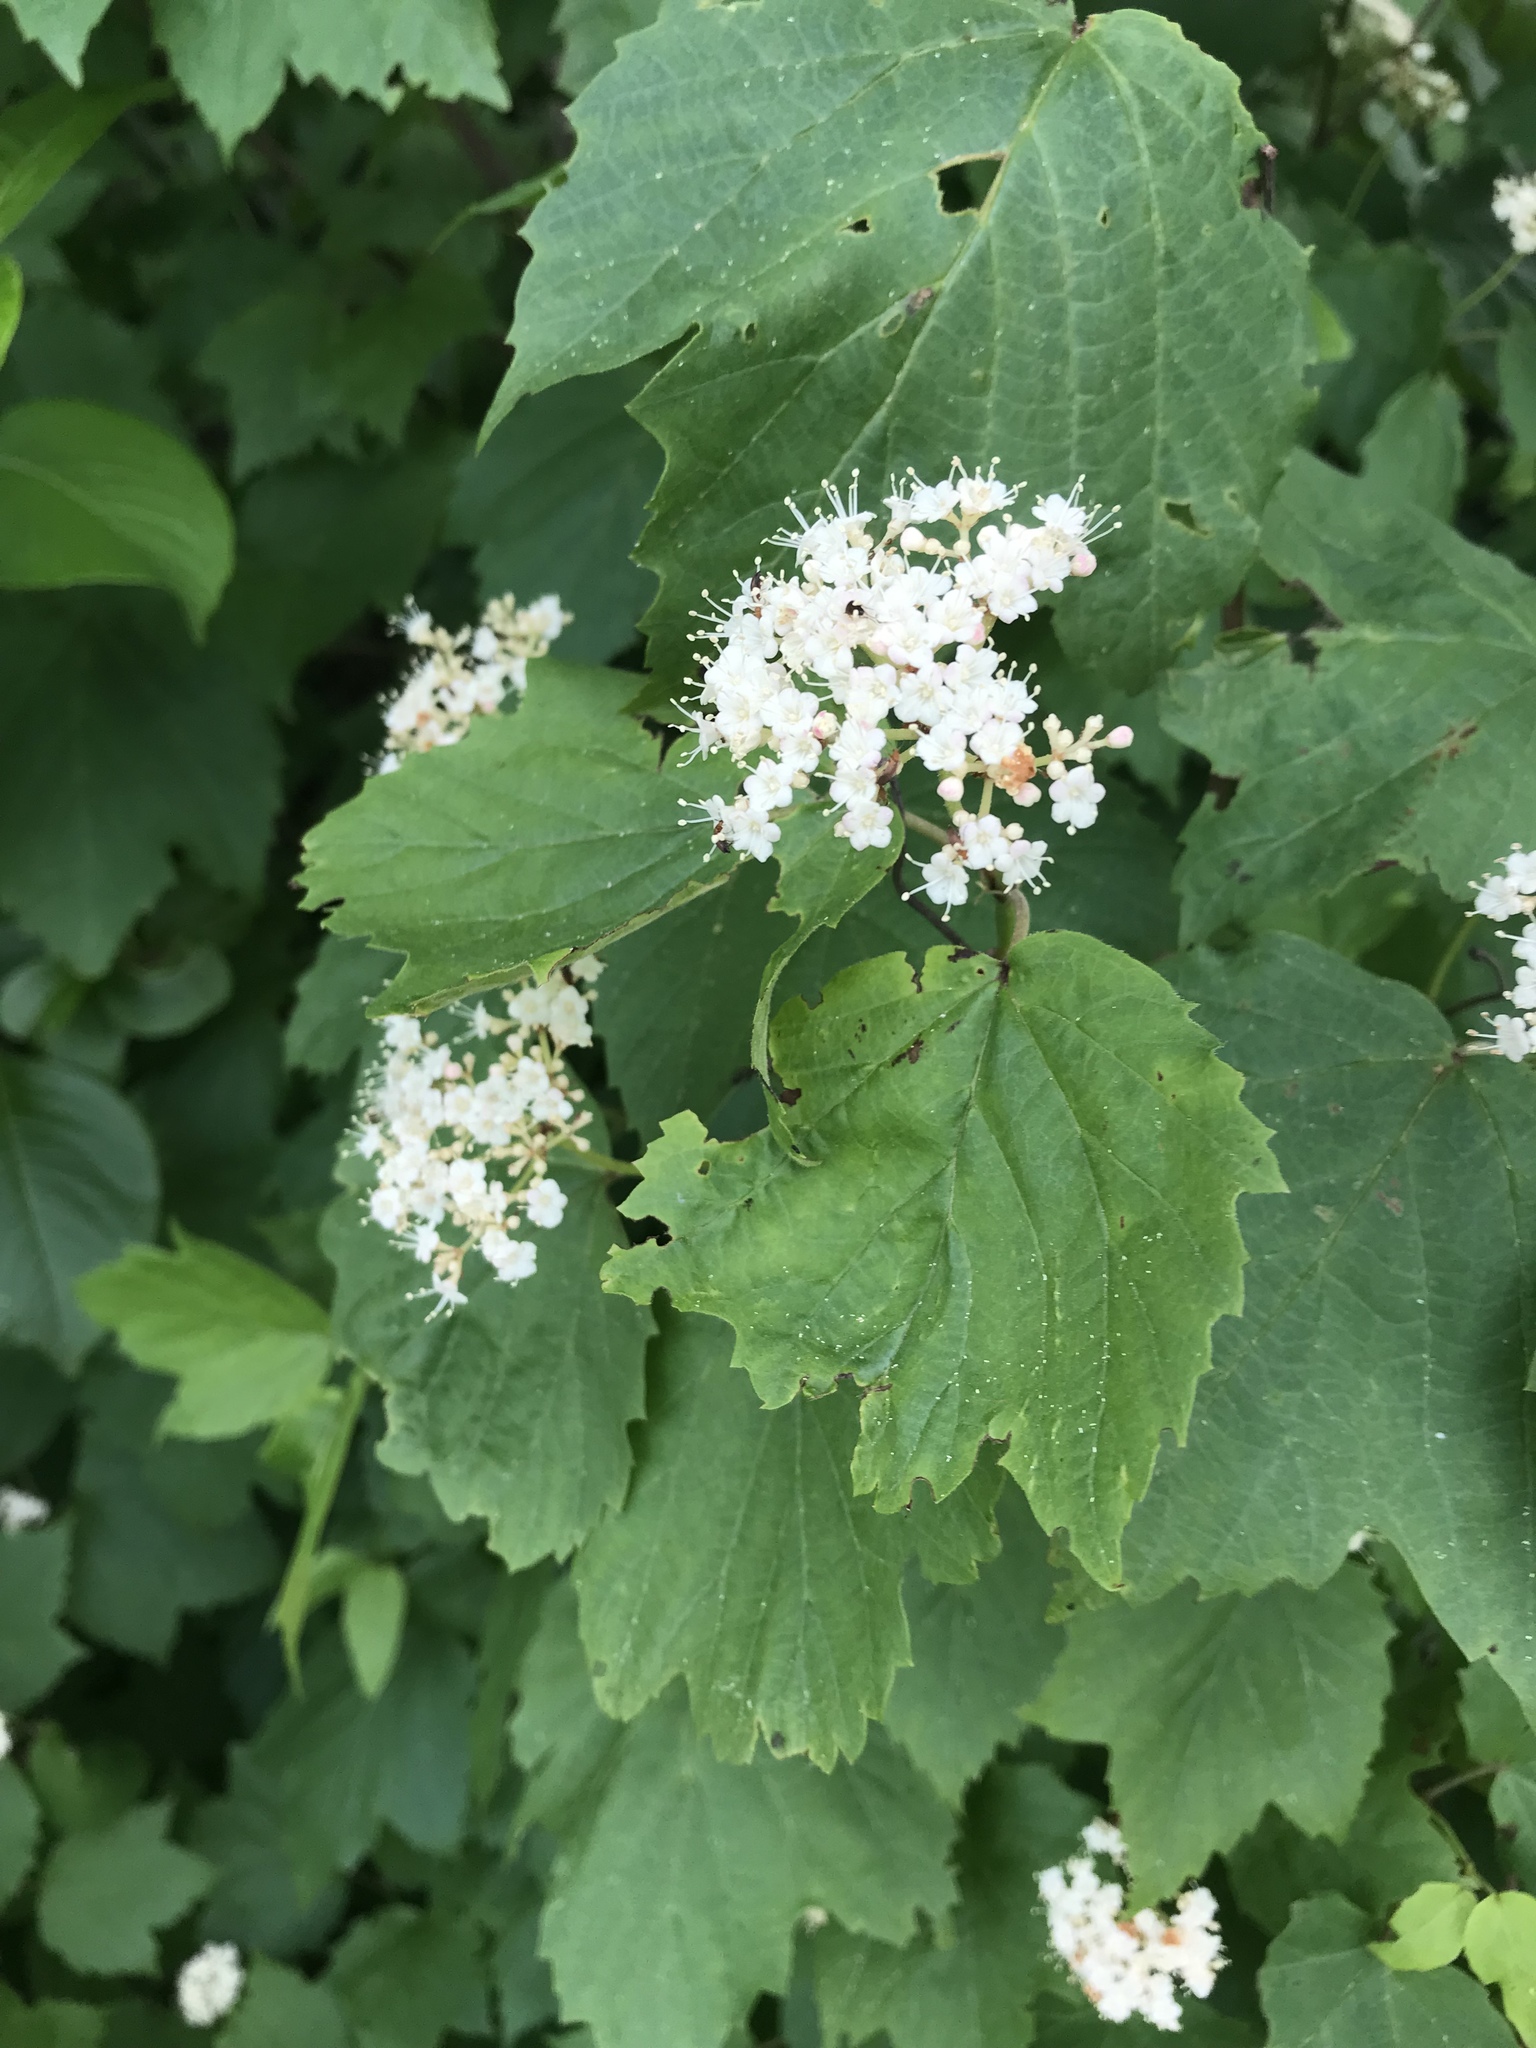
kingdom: Plantae
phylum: Tracheophyta
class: Magnoliopsida
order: Dipsacales
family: Viburnaceae
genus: Viburnum
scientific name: Viburnum acerifolium
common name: Dockmackie
